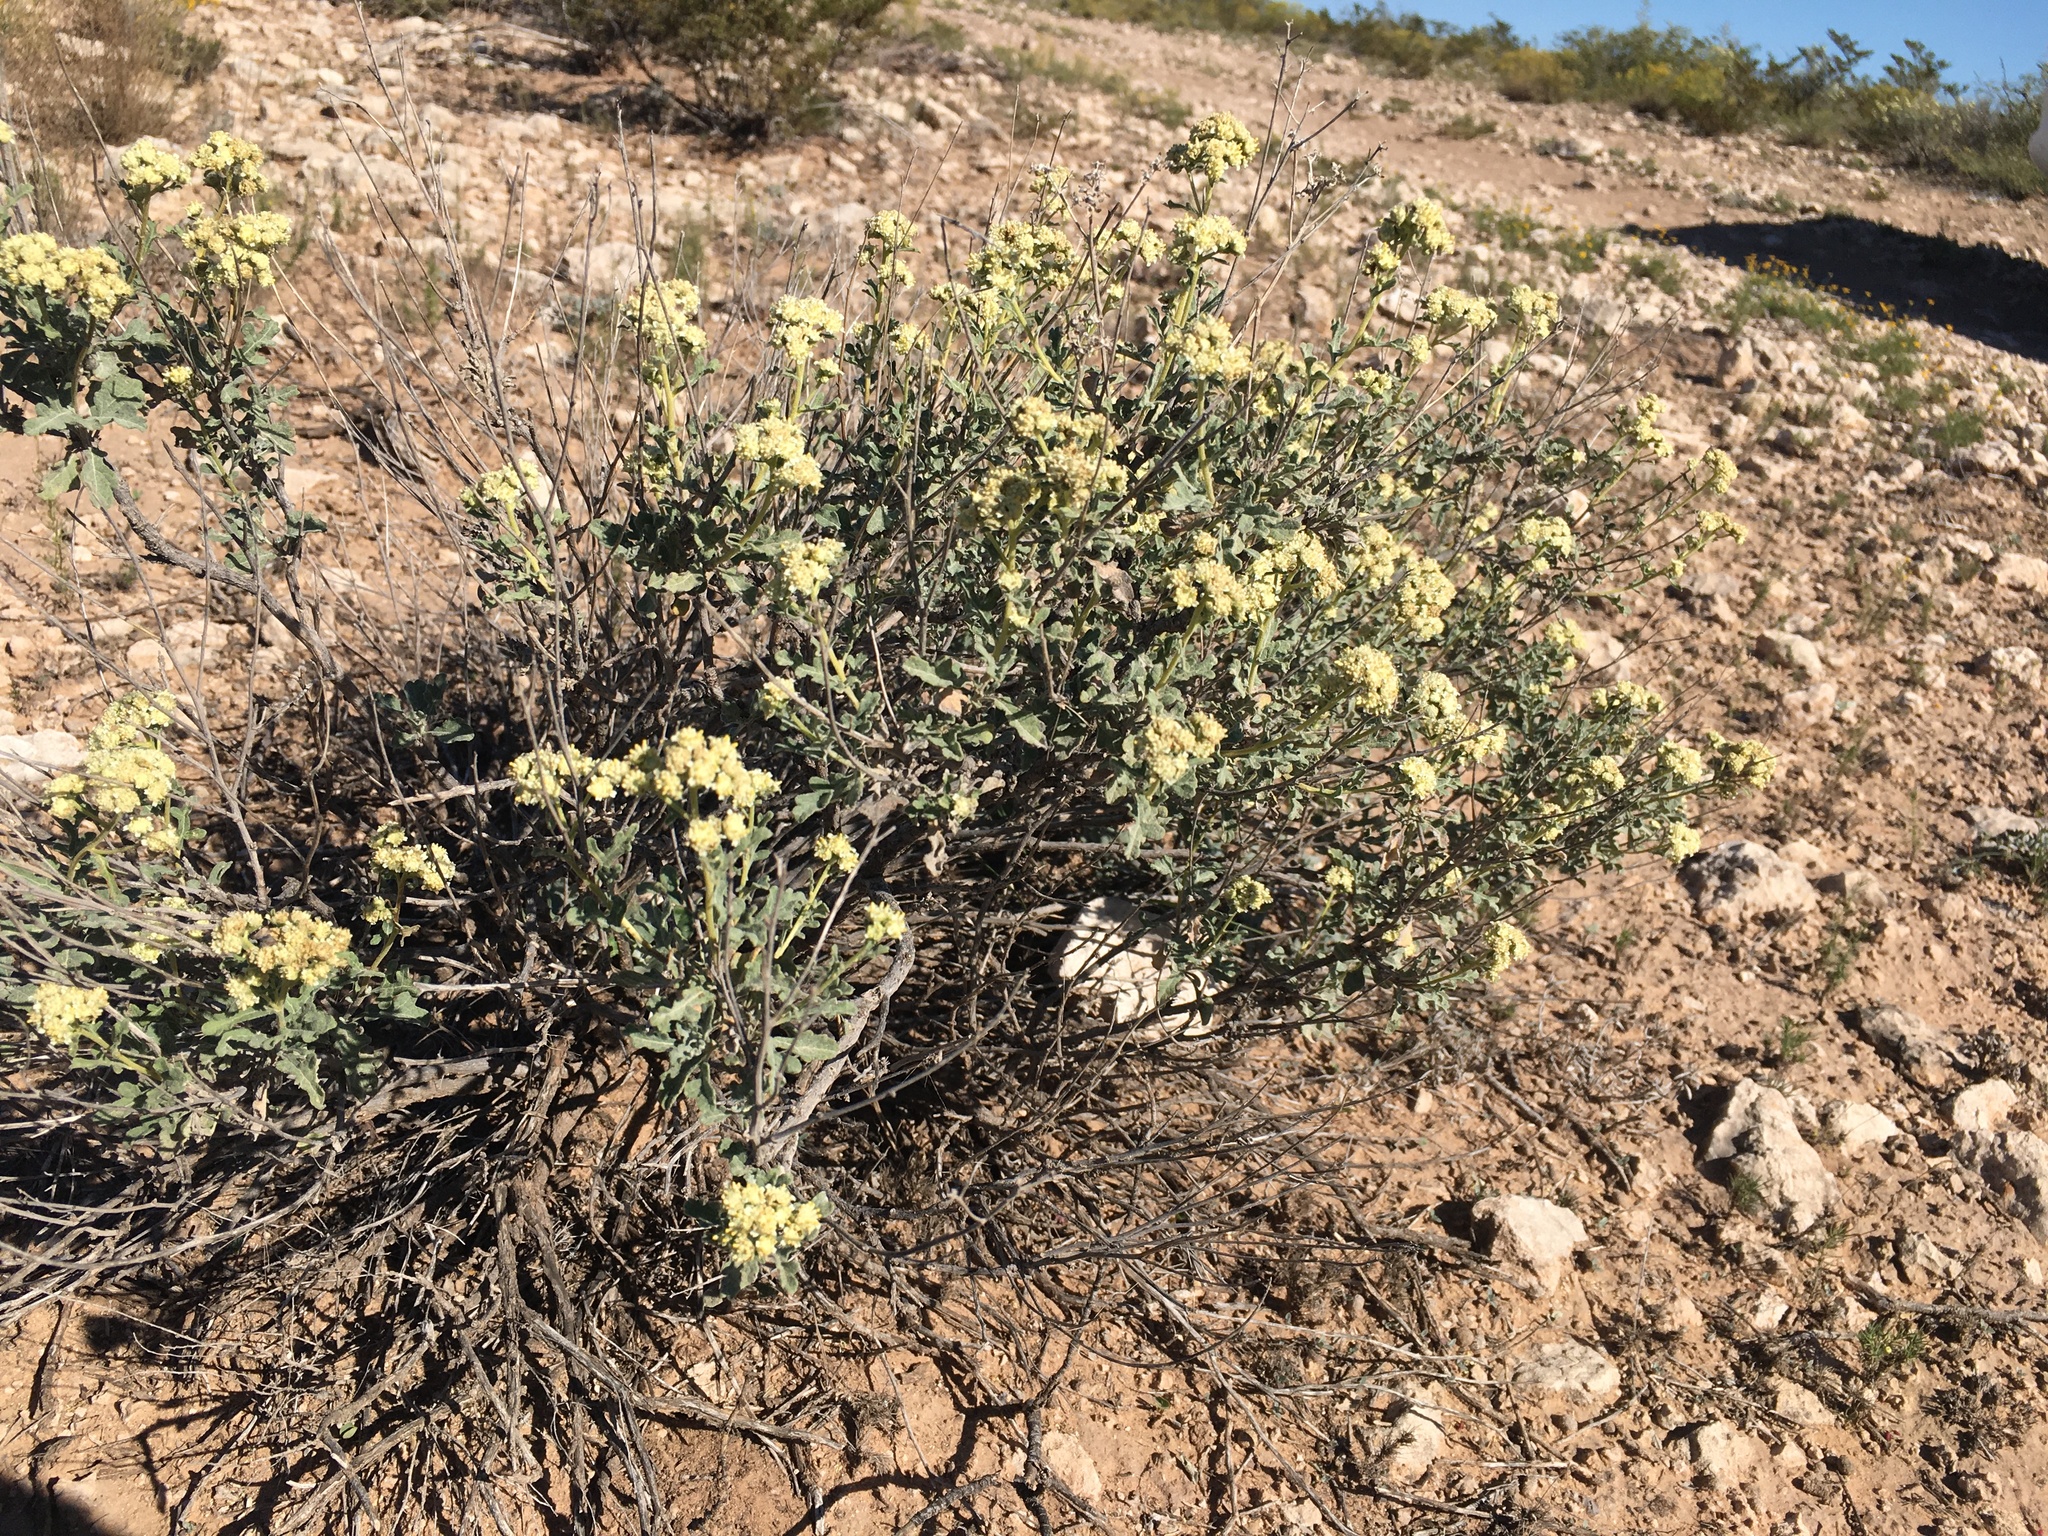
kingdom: Plantae
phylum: Tracheophyta
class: Magnoliopsida
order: Asterales
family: Asteraceae
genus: Parthenium
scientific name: Parthenium incanum
